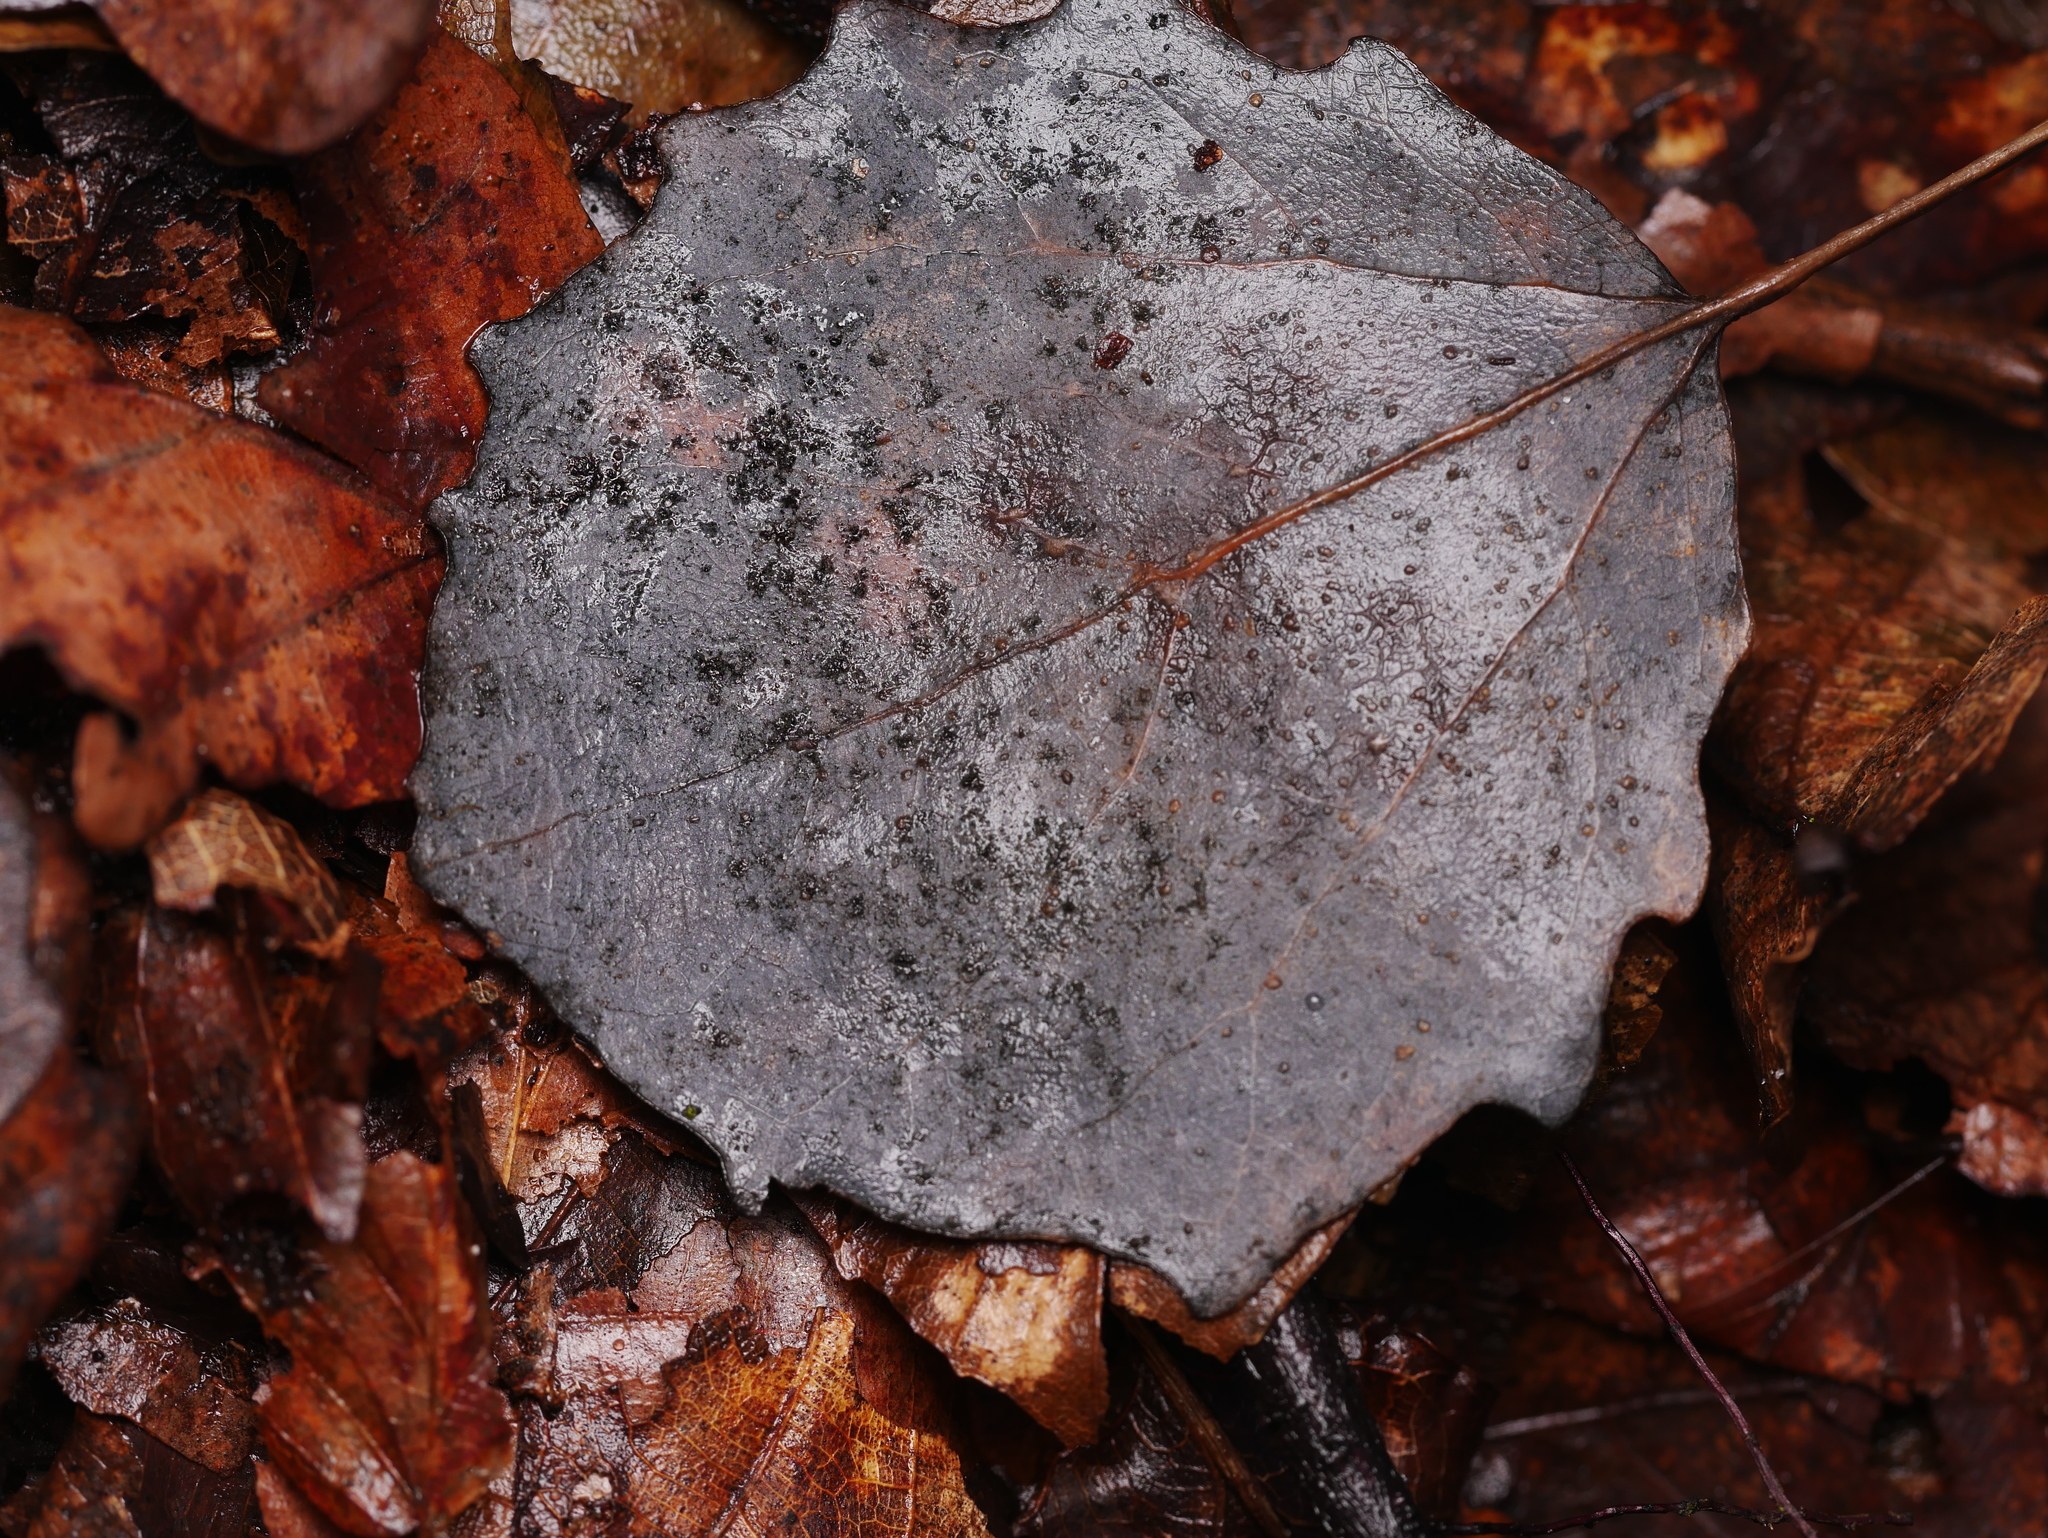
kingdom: Plantae
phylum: Tracheophyta
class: Magnoliopsida
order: Malpighiales
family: Salicaceae
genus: Populus
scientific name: Populus tremula
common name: European aspen
